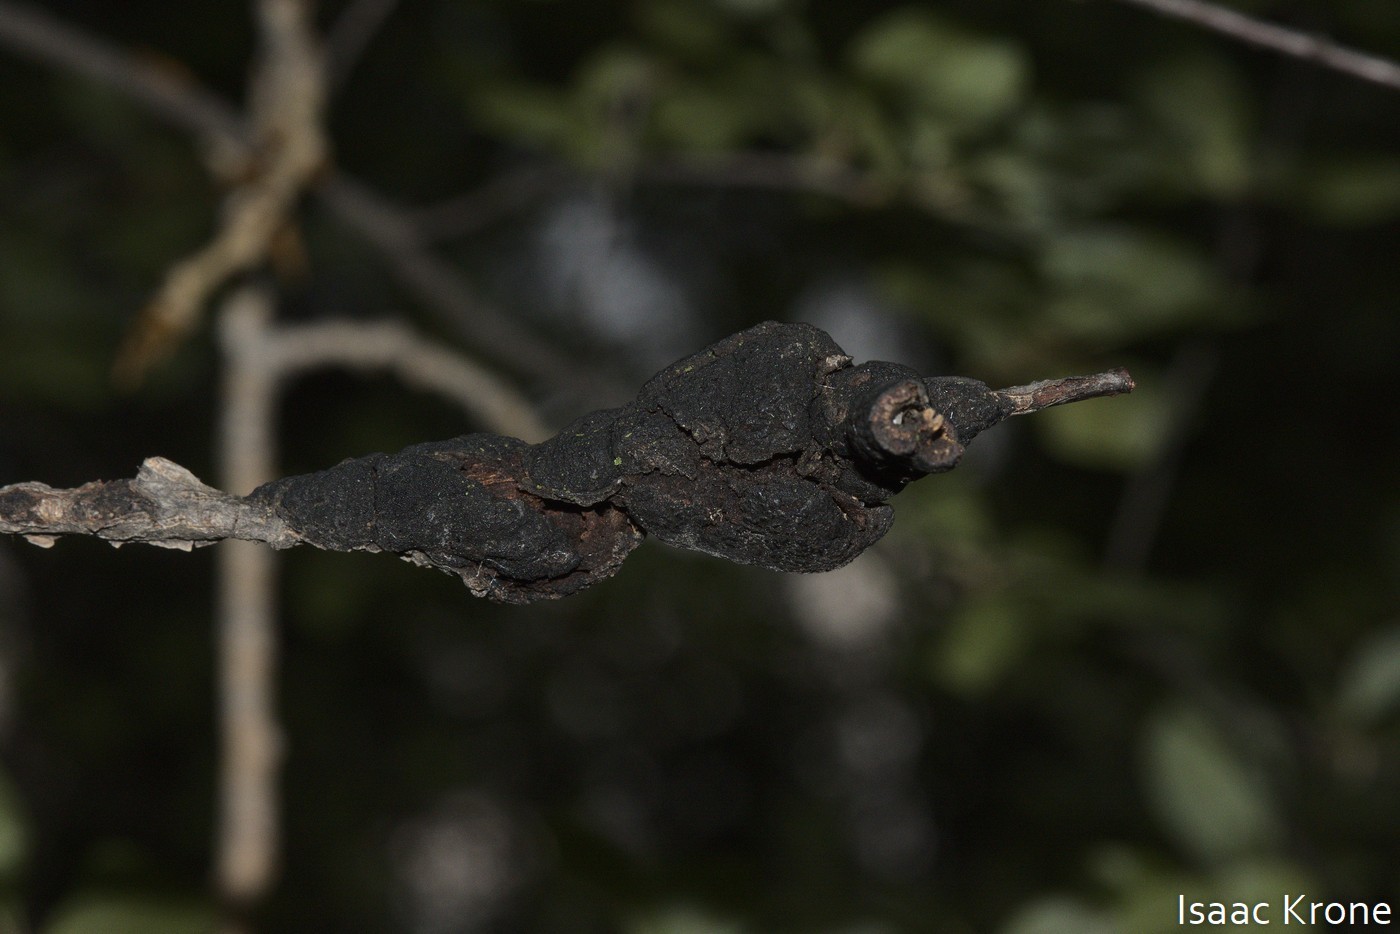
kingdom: Fungi
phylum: Ascomycota
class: Dothideomycetes
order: Venturiales
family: Venturiaceae
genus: Apiosporina
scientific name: Apiosporina morbosa
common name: Black knot
